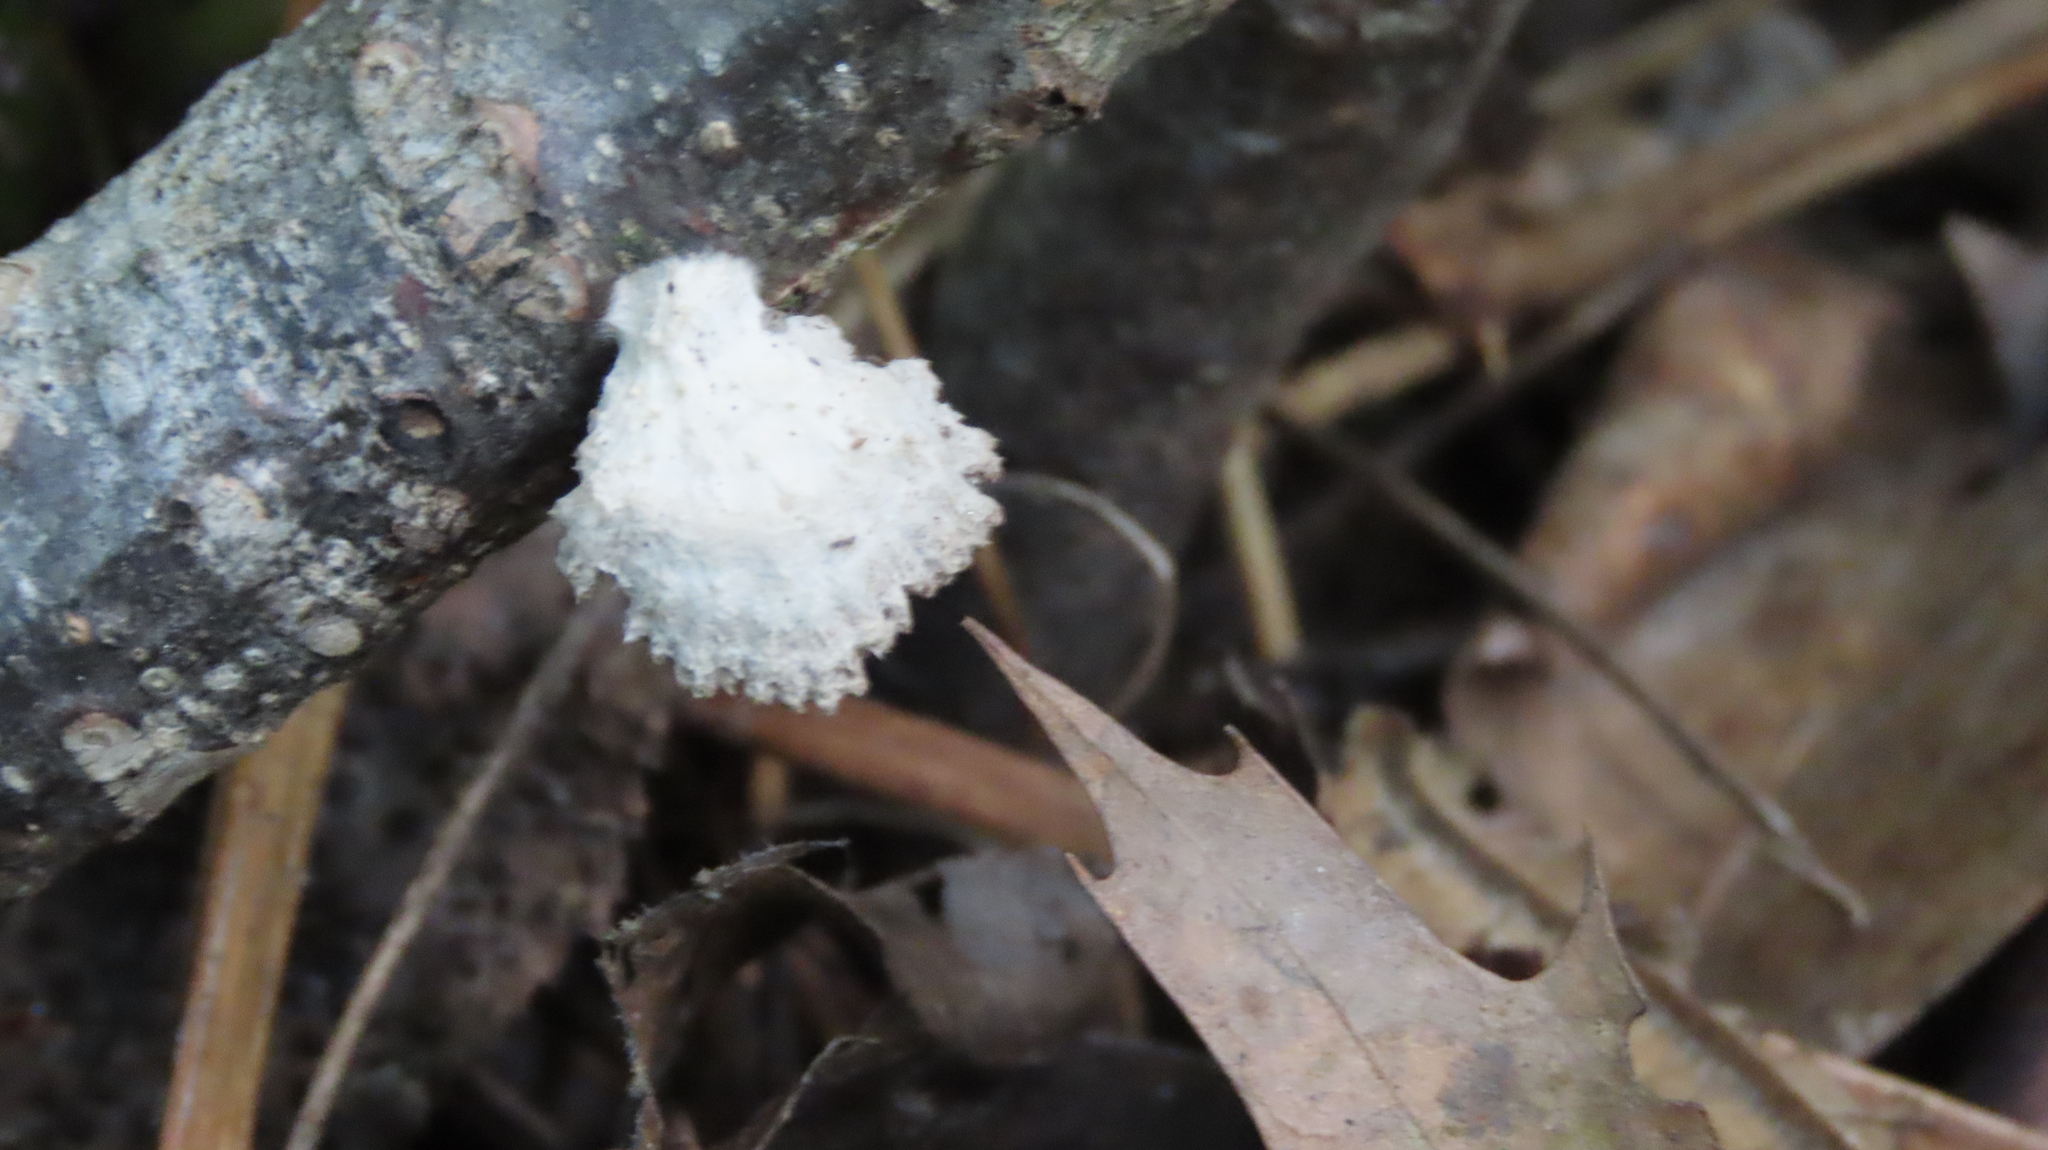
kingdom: Fungi
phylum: Basidiomycota
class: Agaricomycetes
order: Agaricales
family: Schizophyllaceae
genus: Schizophyllum
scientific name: Schizophyllum commune
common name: Common porecrust
